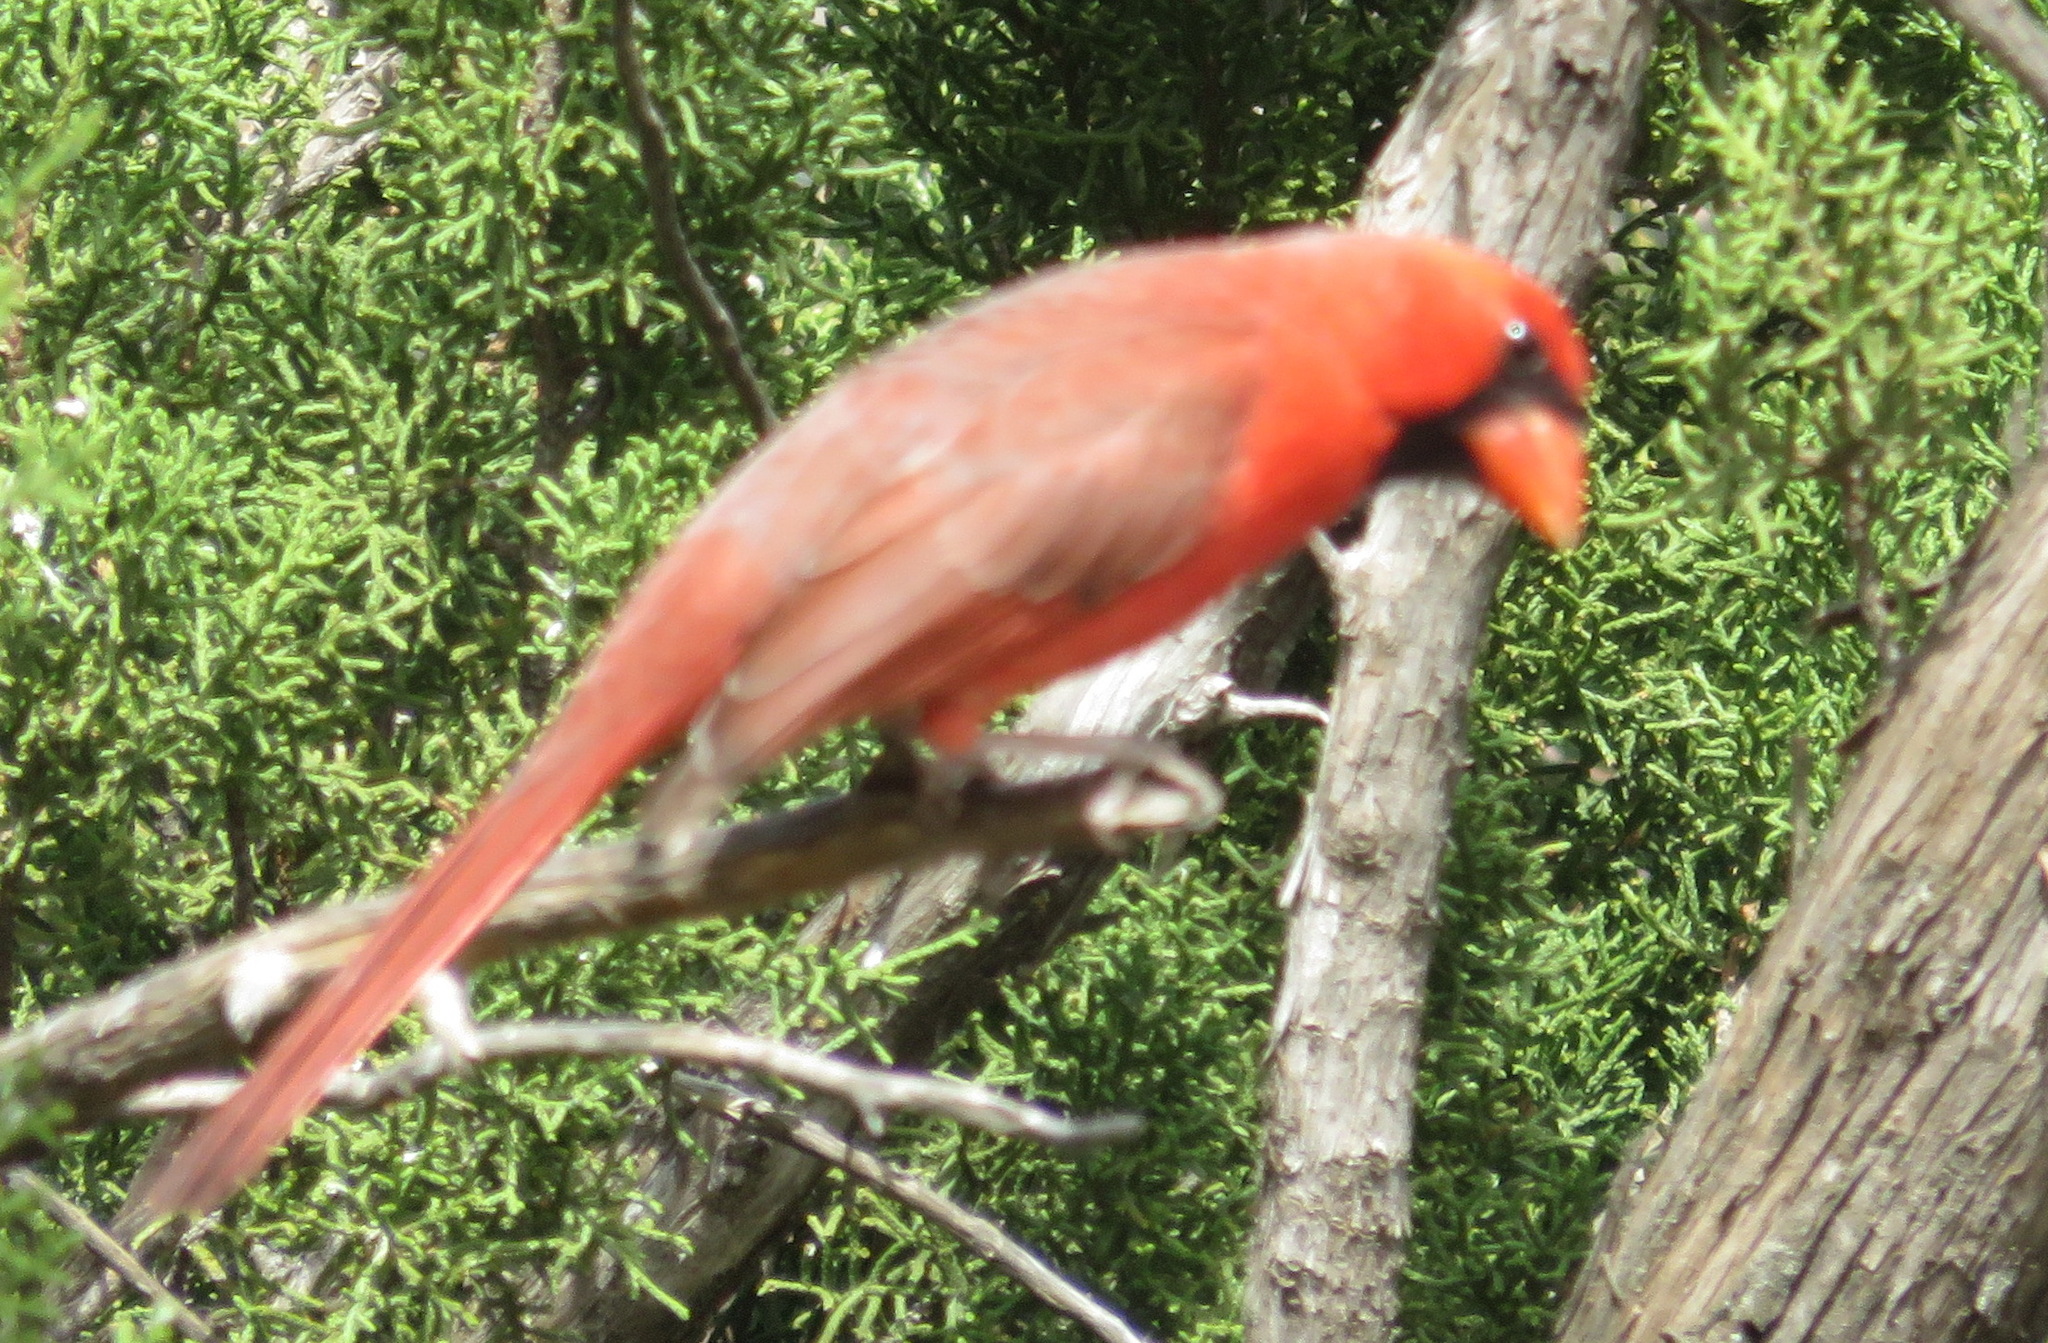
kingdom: Animalia
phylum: Chordata
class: Aves
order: Passeriformes
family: Cardinalidae
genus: Cardinalis
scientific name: Cardinalis cardinalis
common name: Northern cardinal
